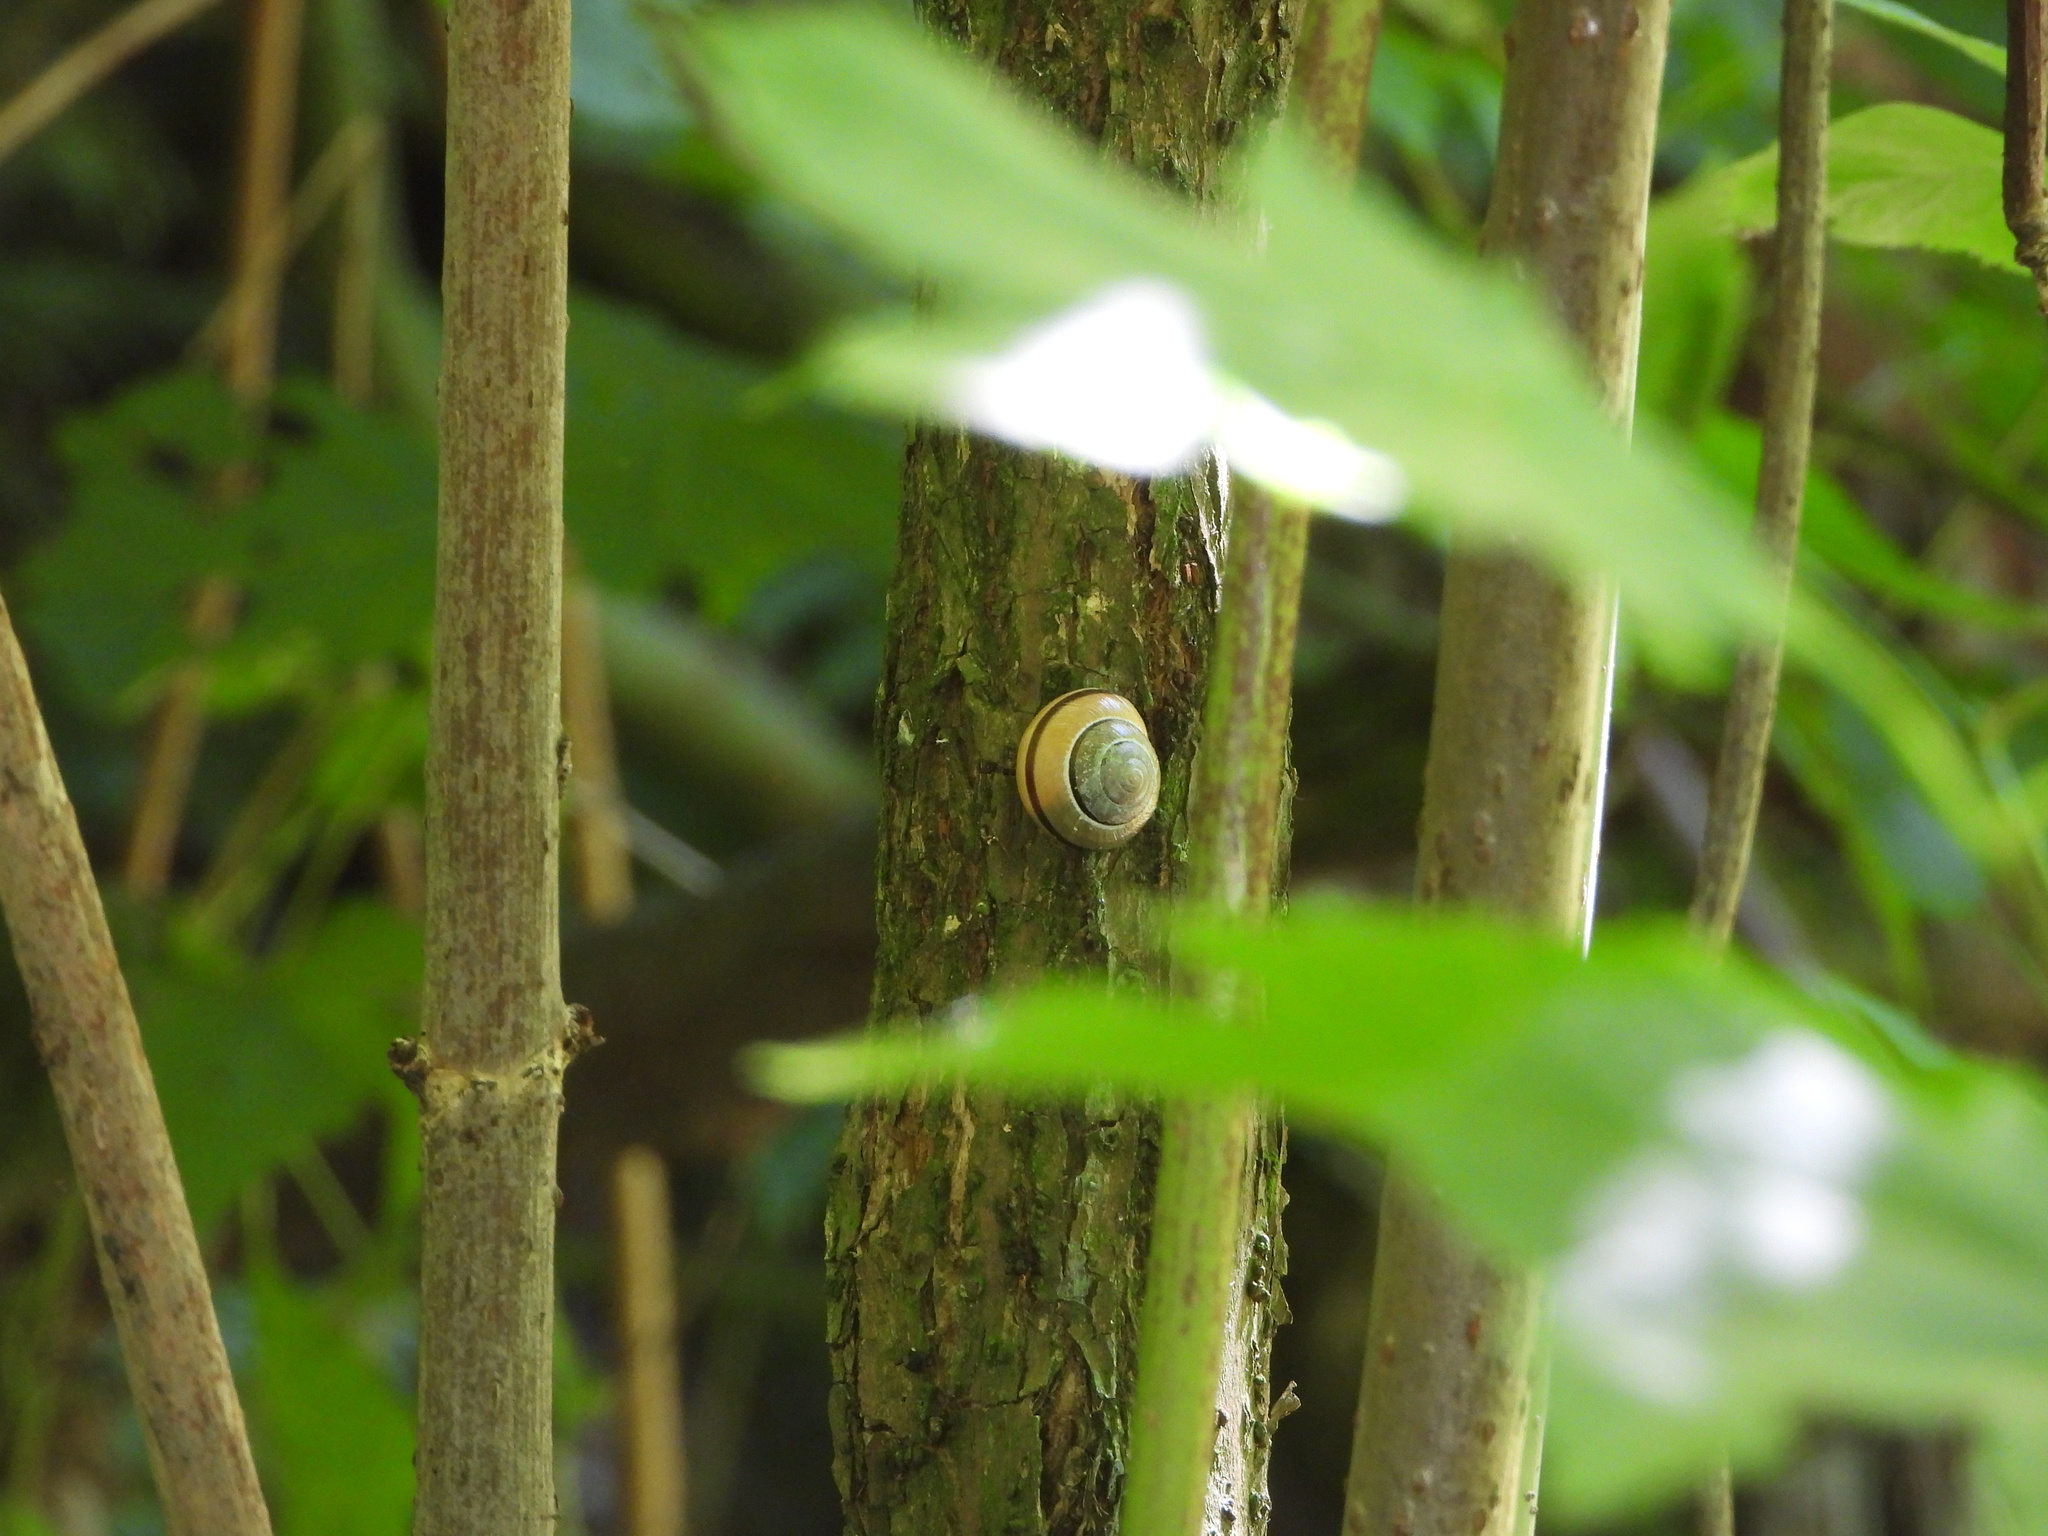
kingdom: Animalia
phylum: Mollusca
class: Gastropoda
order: Stylommatophora
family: Helicidae
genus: Cepaea
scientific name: Cepaea
